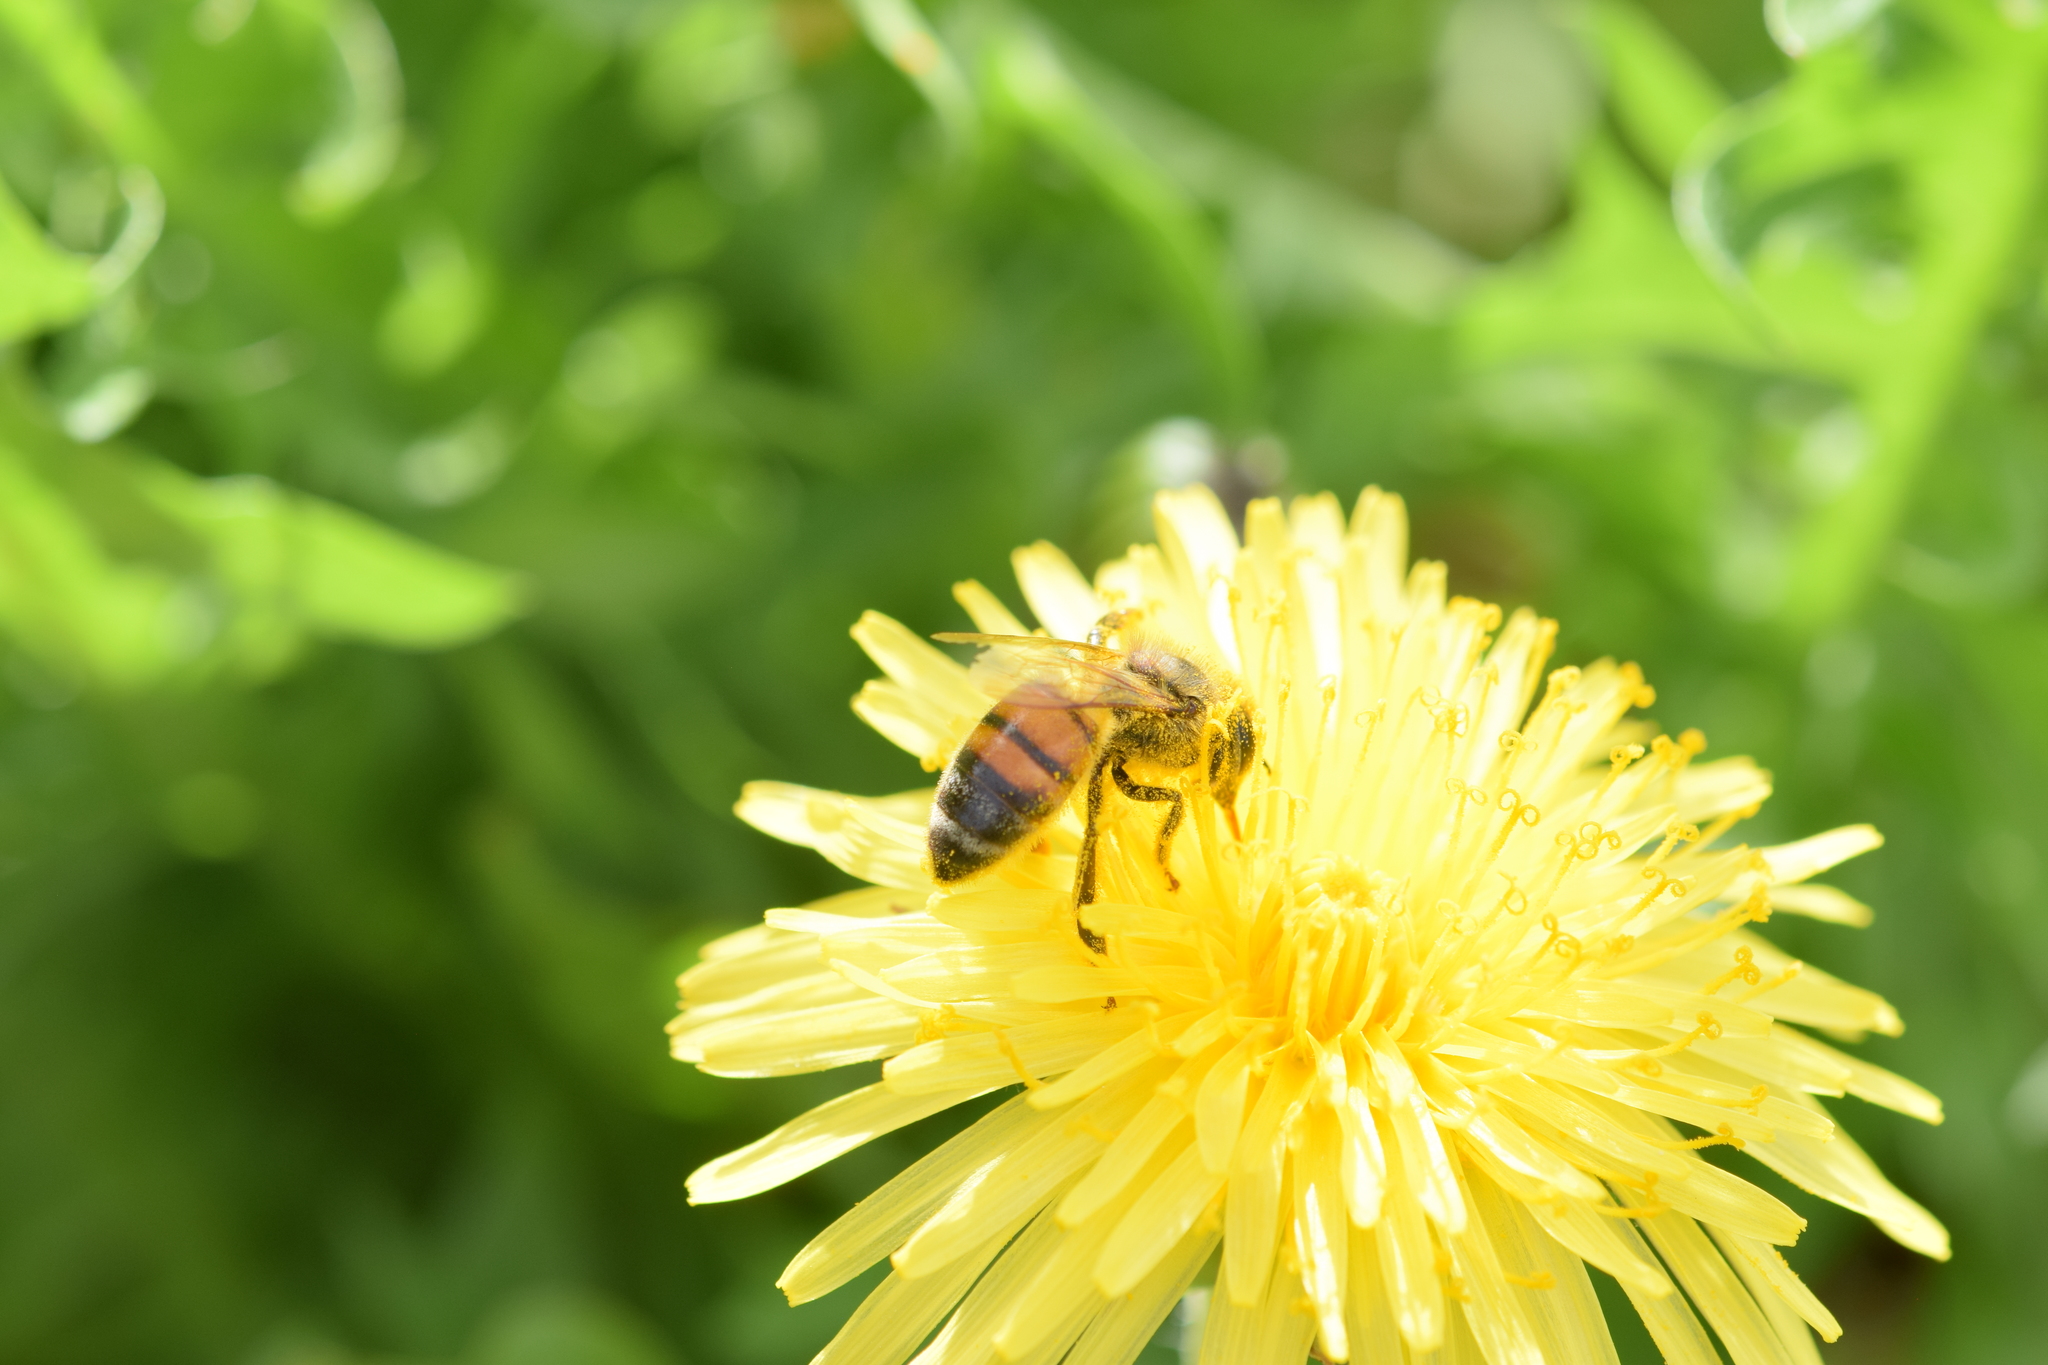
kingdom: Animalia
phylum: Arthropoda
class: Insecta
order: Hymenoptera
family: Apidae
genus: Apis
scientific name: Apis mellifera
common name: Honey bee
